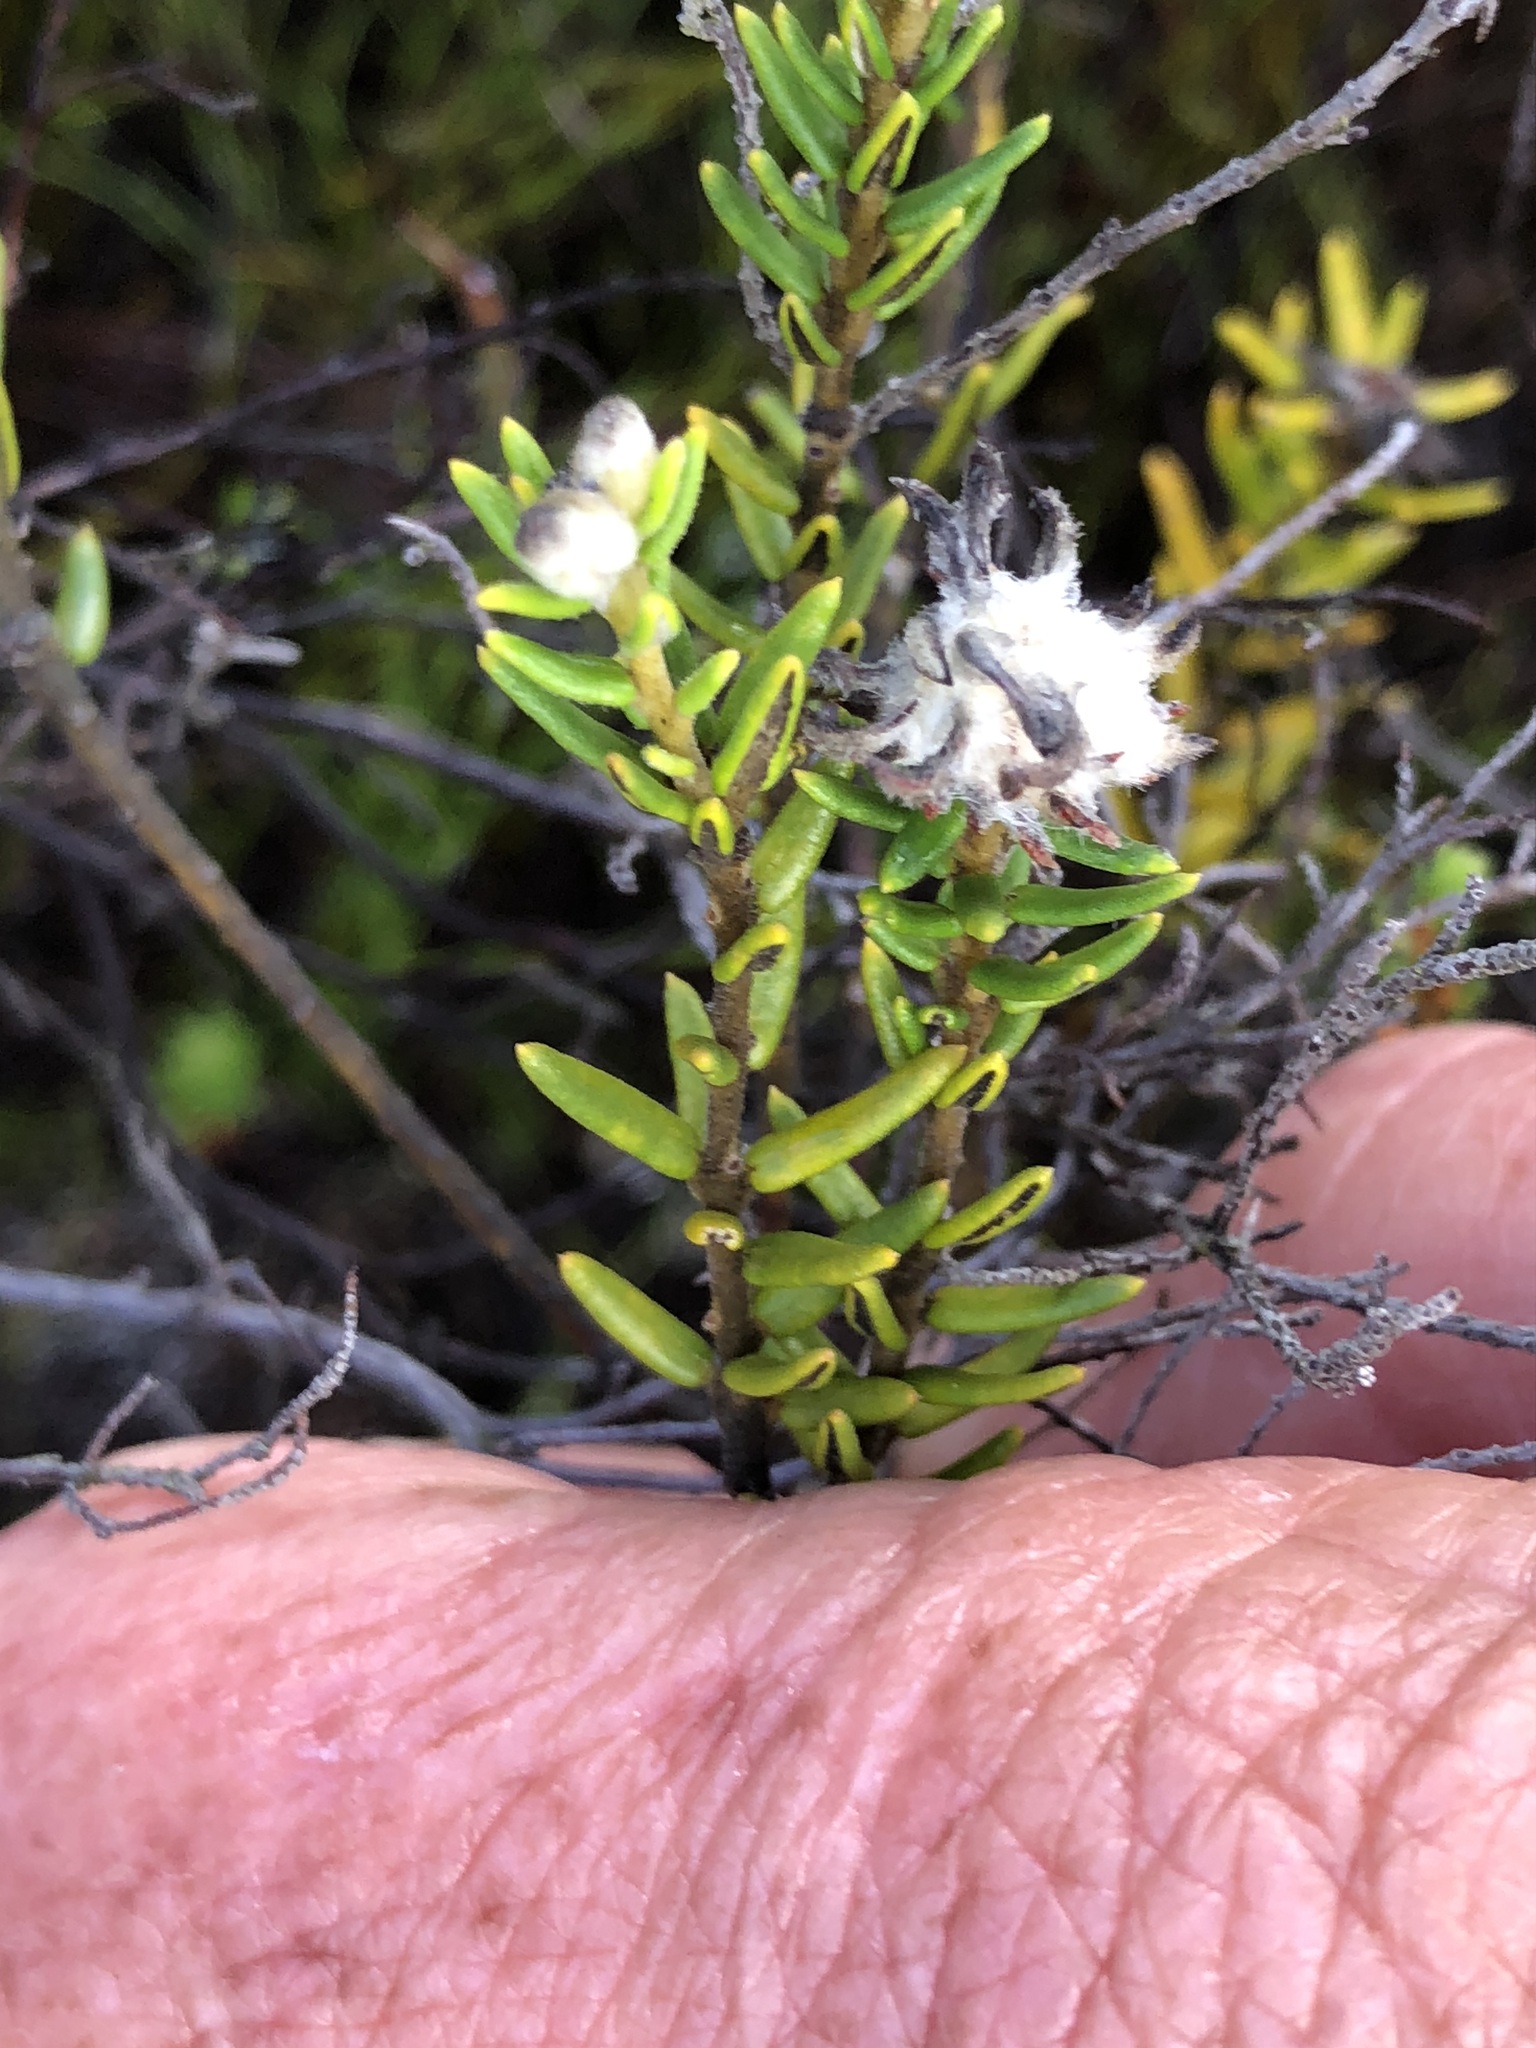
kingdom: Plantae
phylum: Tracheophyta
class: Magnoliopsida
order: Rosales
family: Rhamnaceae
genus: Trichocephalus
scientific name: Trichocephalus stipularis
